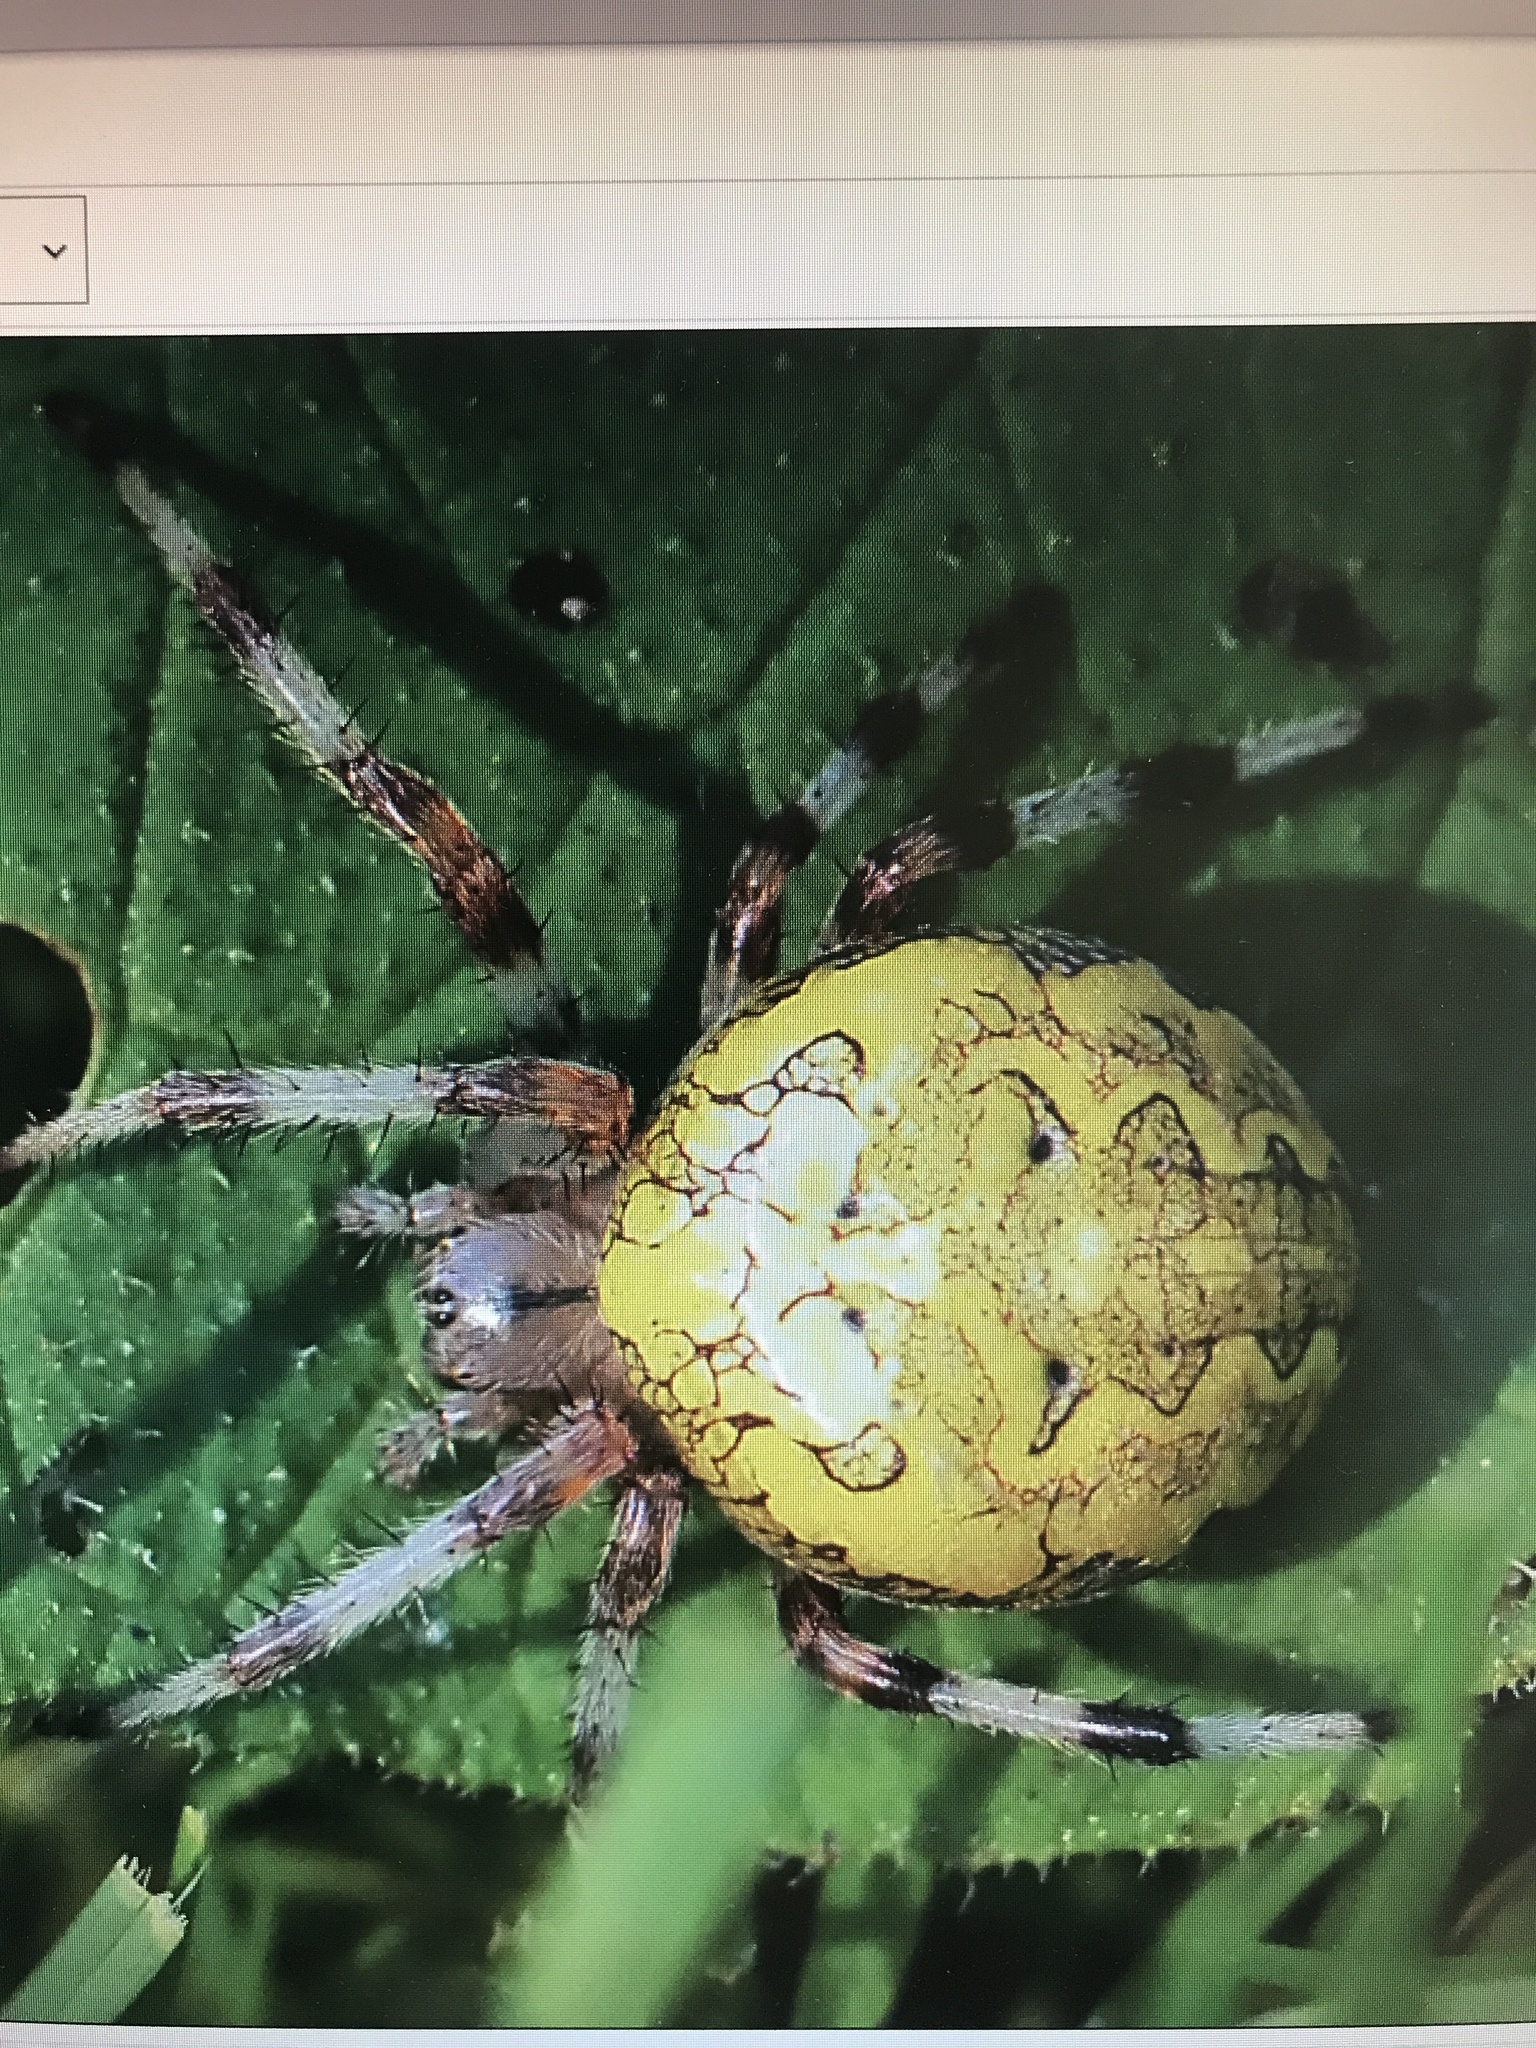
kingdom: Animalia
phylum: Arthropoda
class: Arachnida
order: Araneae
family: Araneidae
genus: Araneus
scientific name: Araneus marmoreus
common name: Marbled orbweaver
